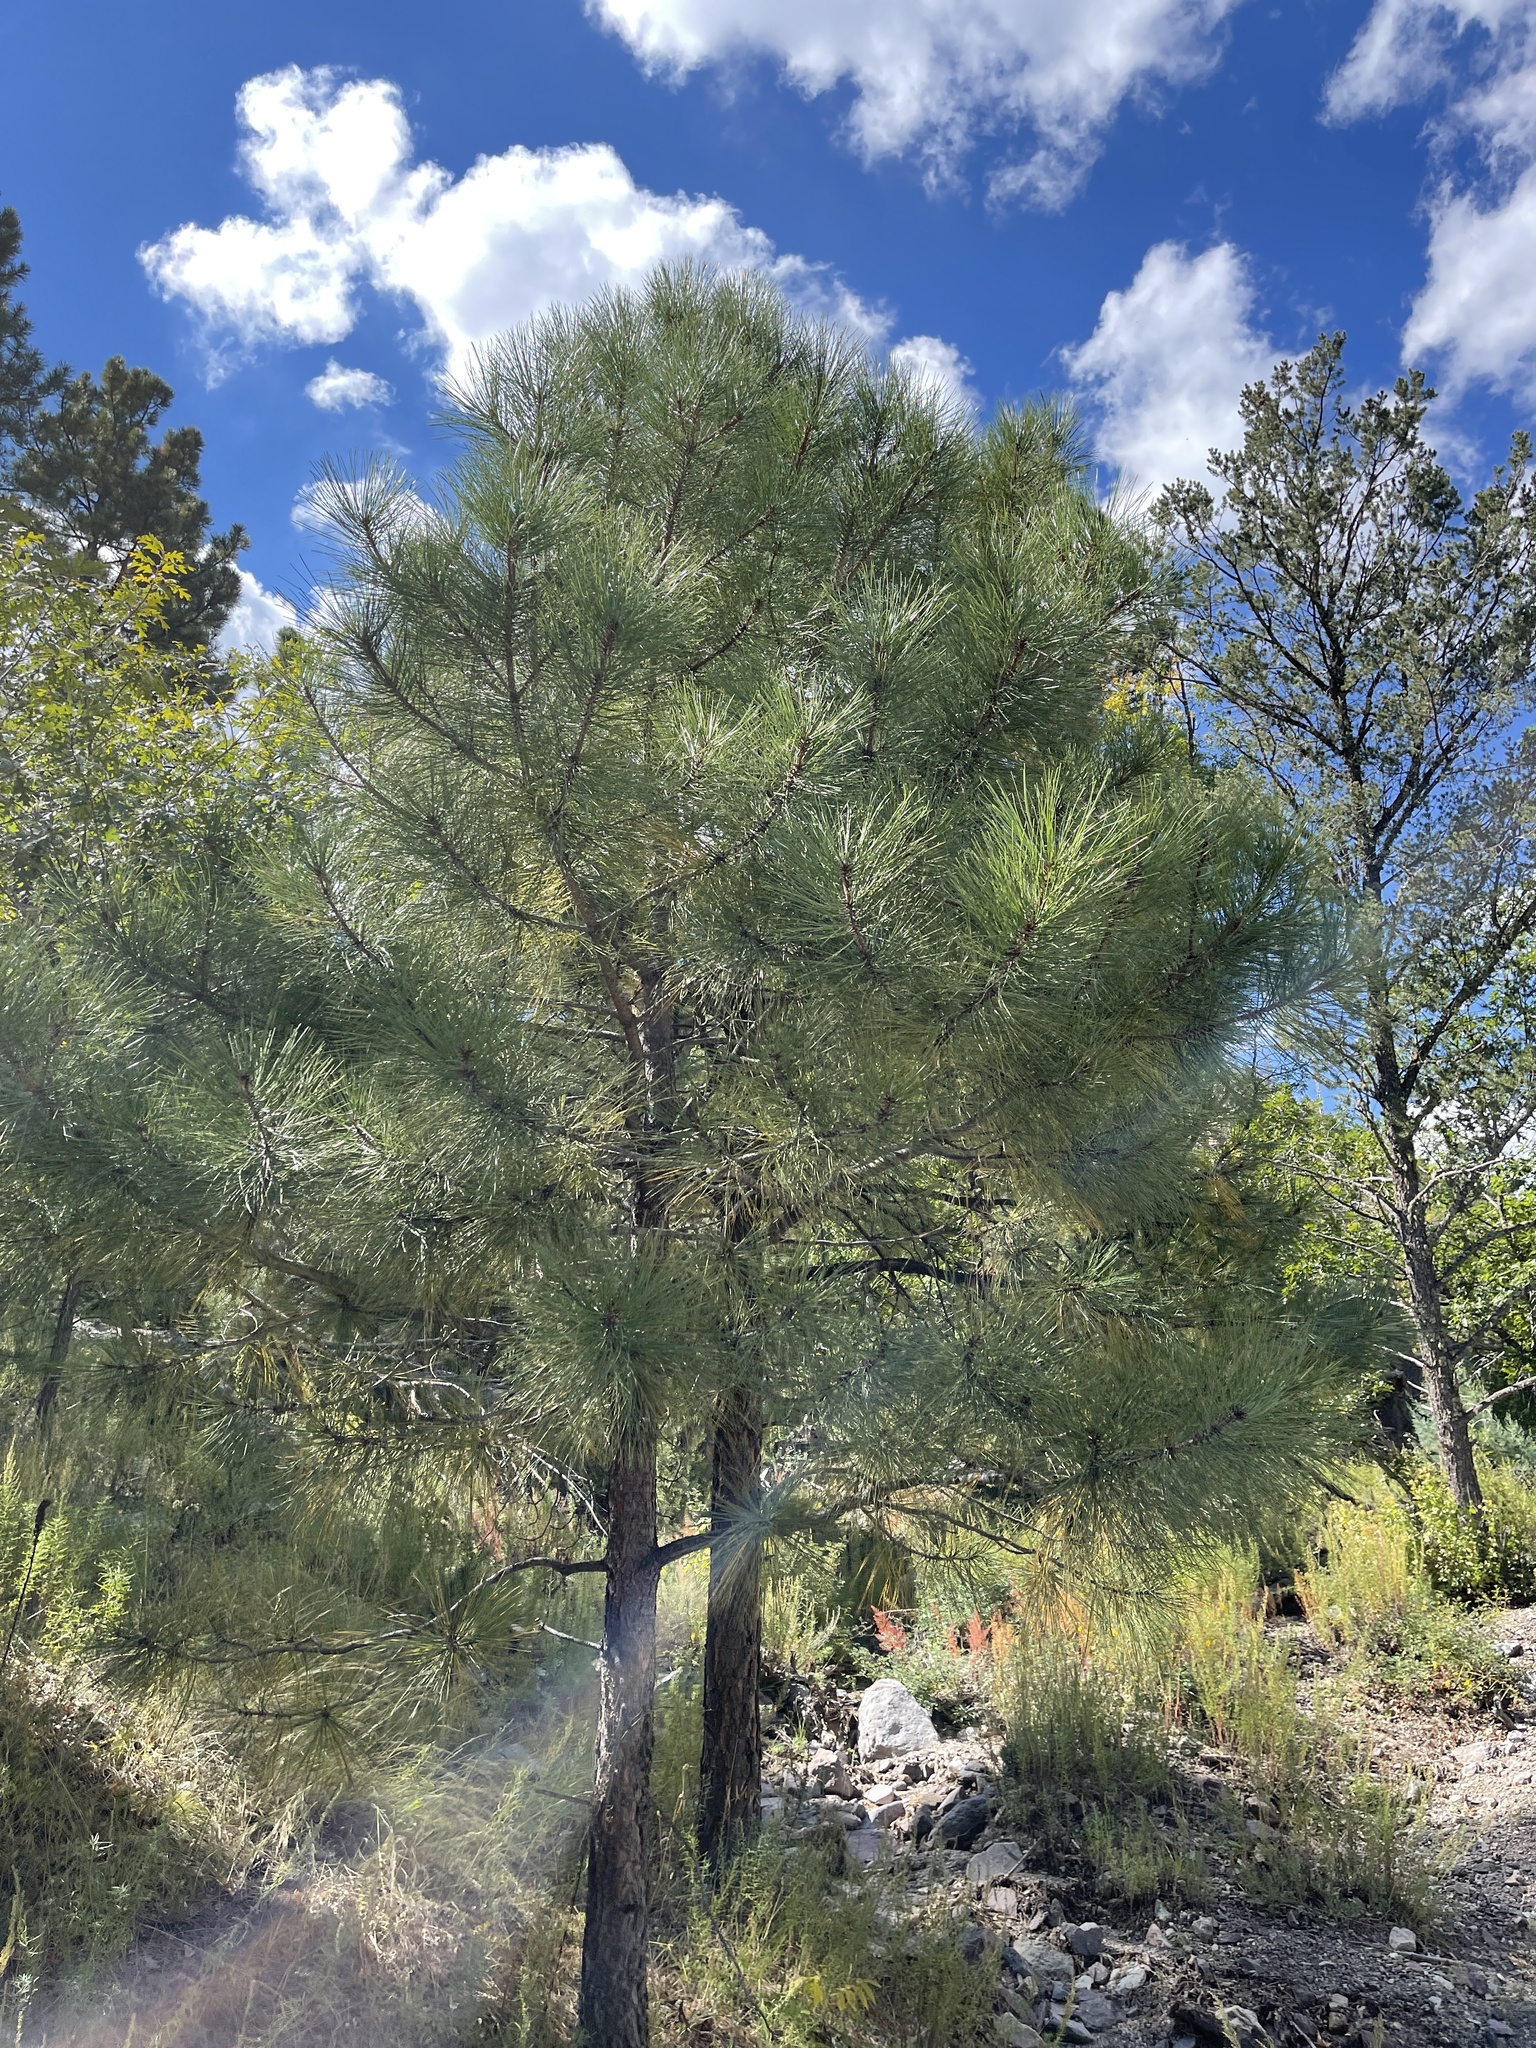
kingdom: Plantae
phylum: Tracheophyta
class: Pinopsida
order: Pinales
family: Pinaceae
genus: Pinus
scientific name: Pinus ponderosa
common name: Western yellow-pine
